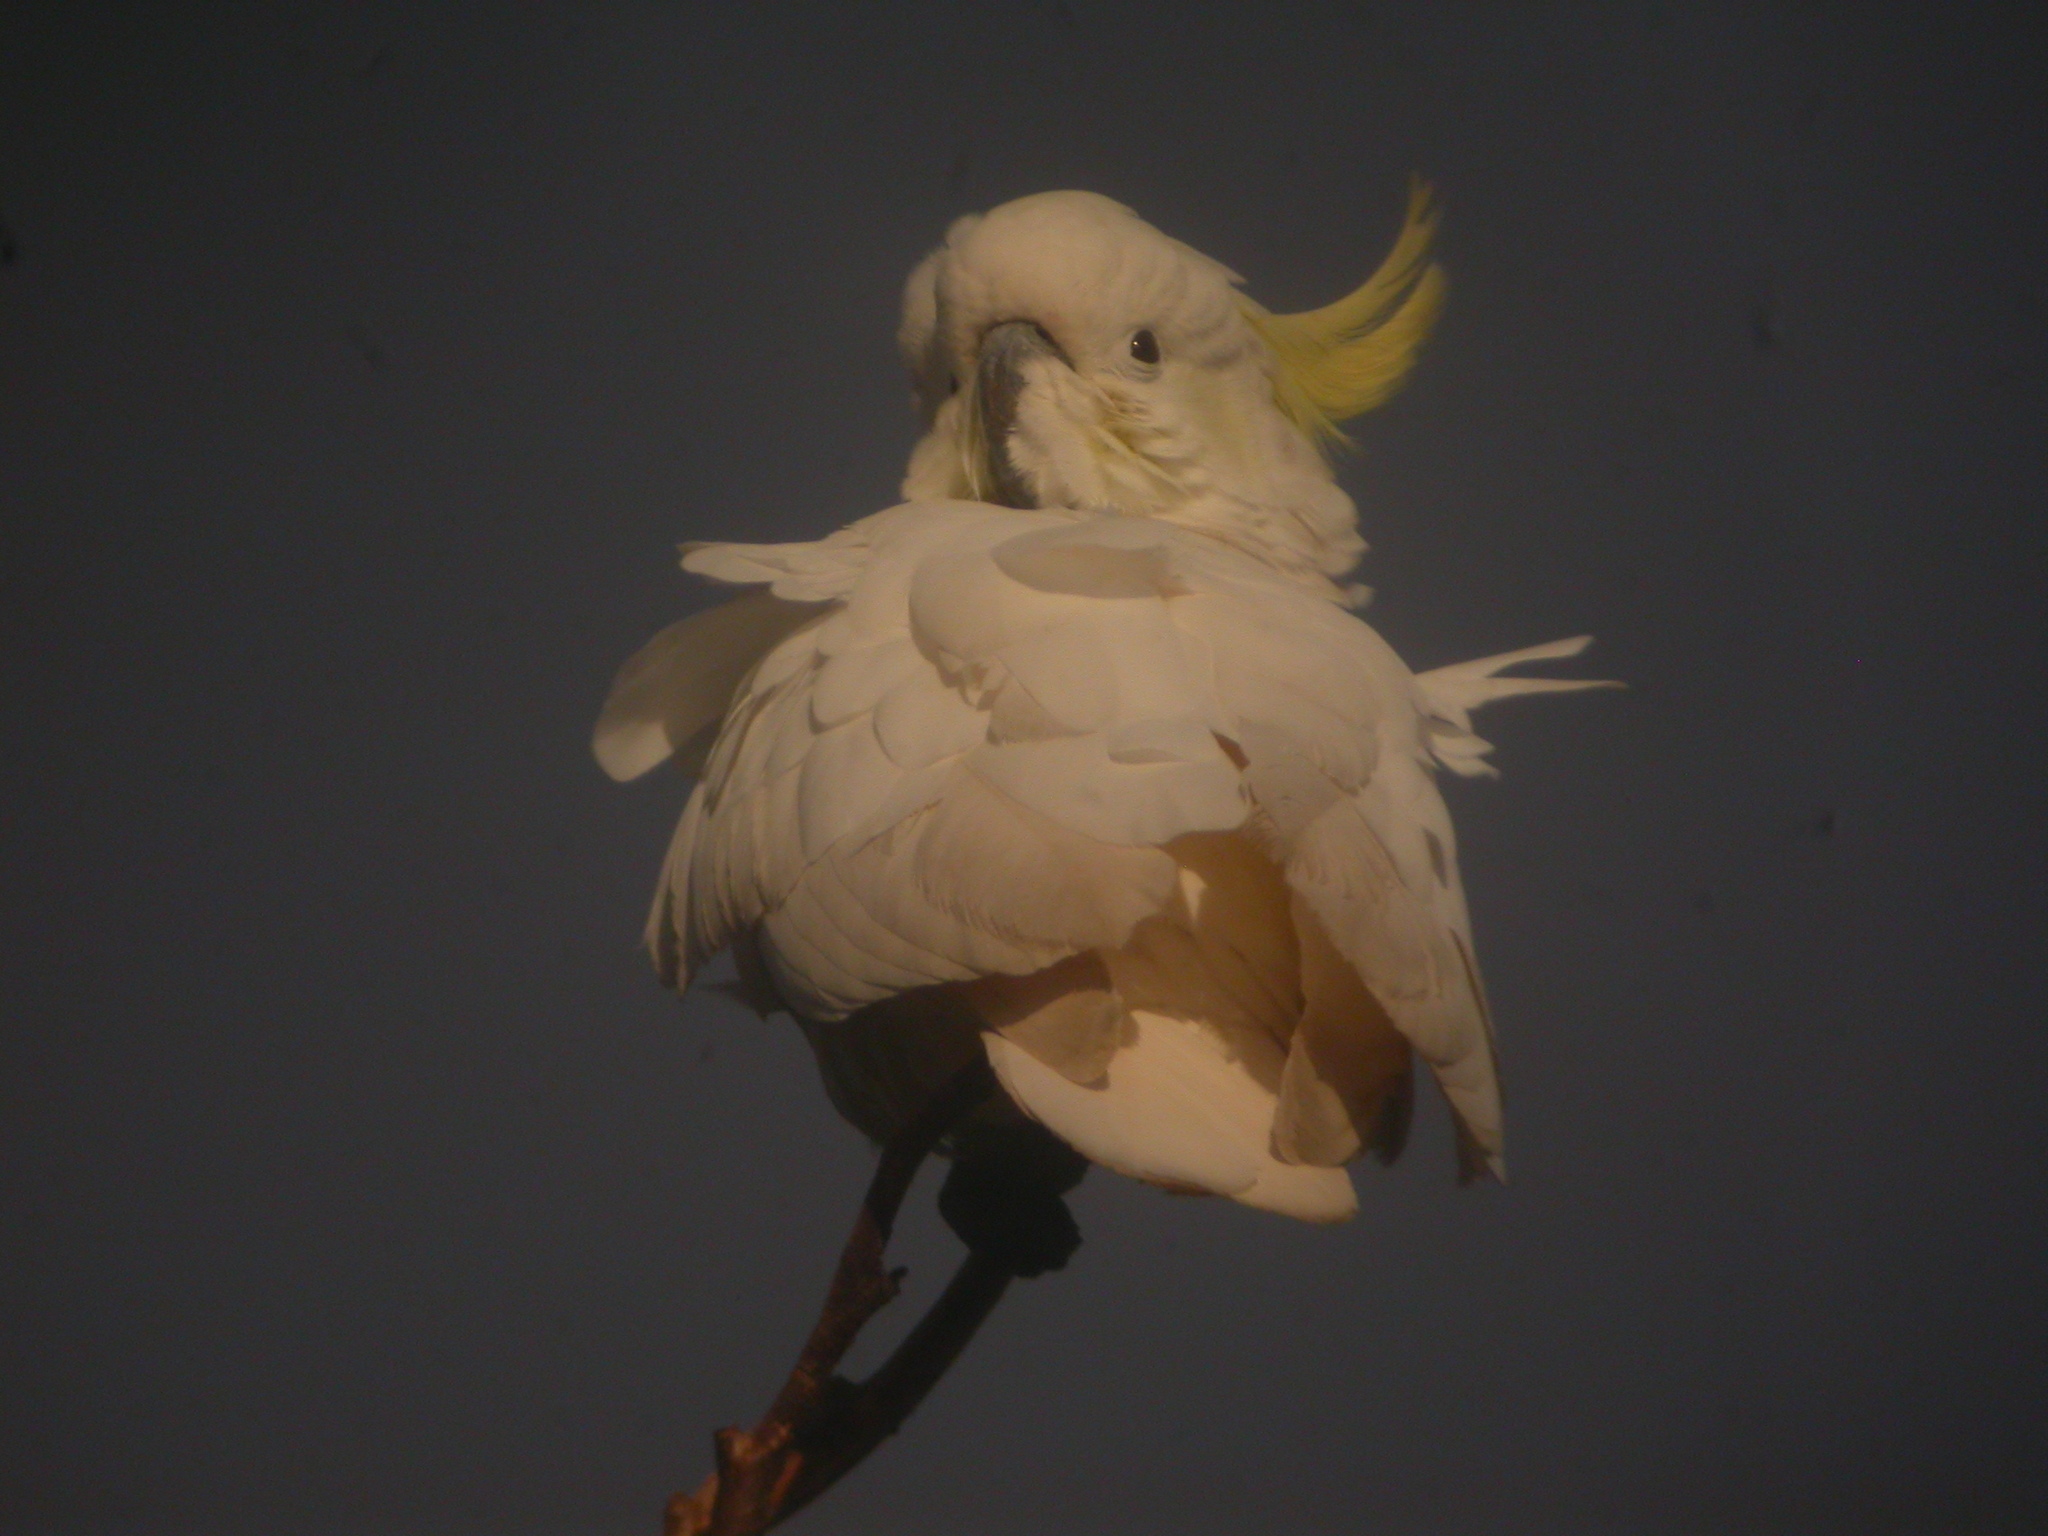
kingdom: Animalia
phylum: Chordata
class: Aves
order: Psittaciformes
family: Psittacidae
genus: Cacatua
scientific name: Cacatua galerita
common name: Sulphur-crested cockatoo
